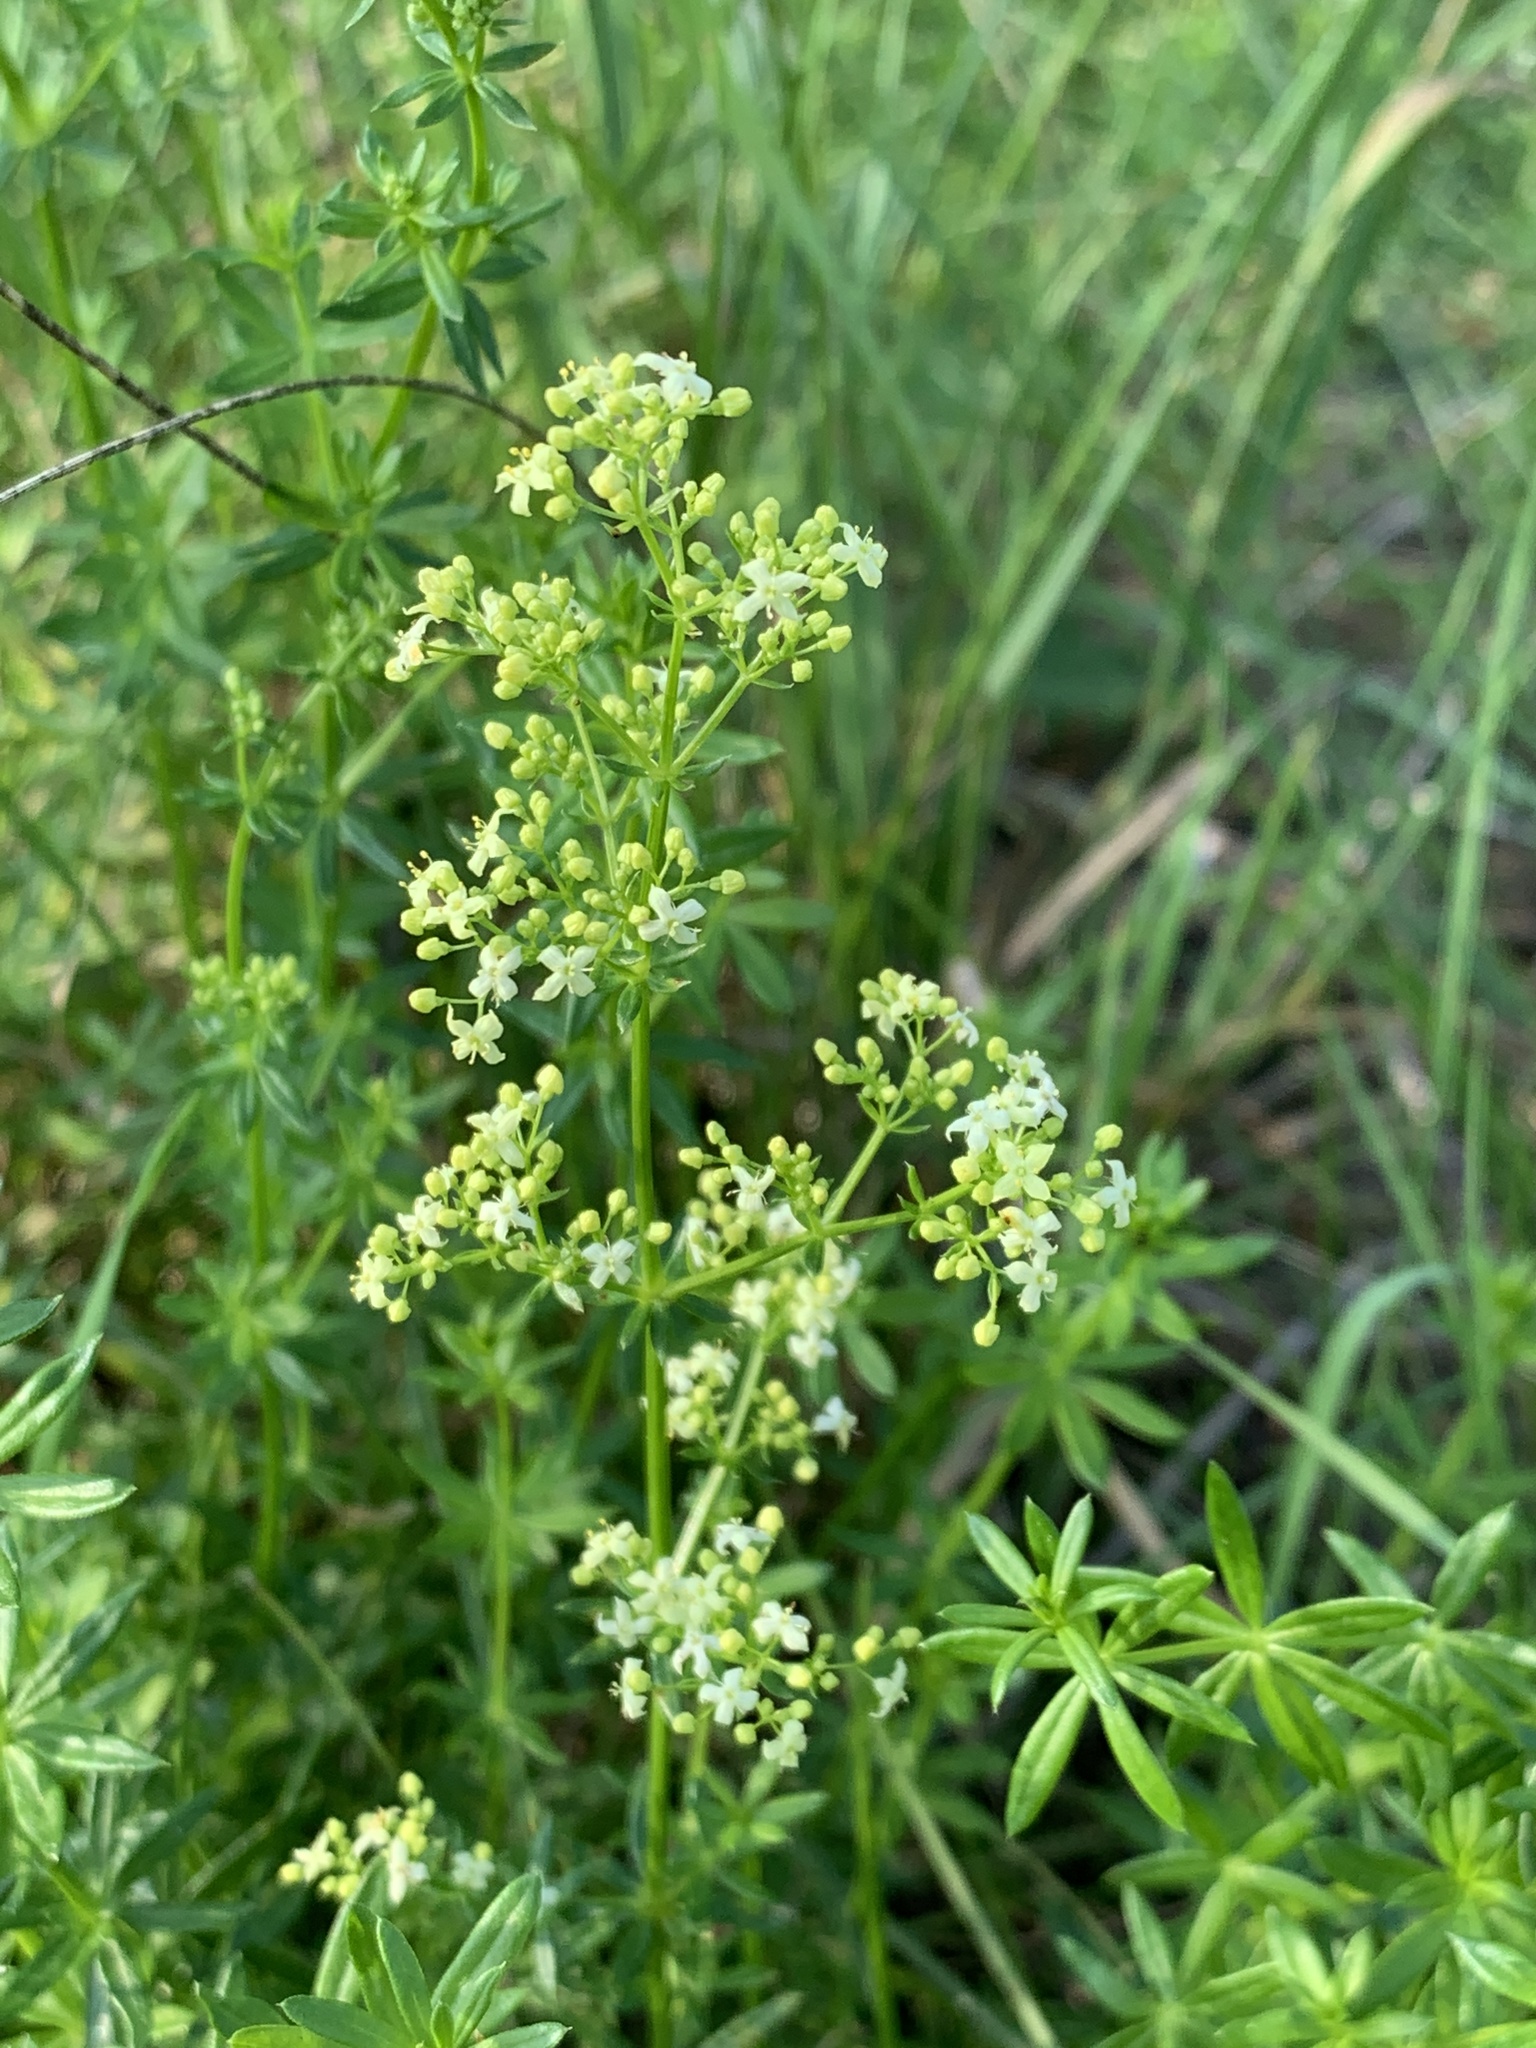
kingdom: Plantae
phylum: Tracheophyta
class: Magnoliopsida
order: Gentianales
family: Rubiaceae
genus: Galium
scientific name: Galium album
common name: White bedstraw
